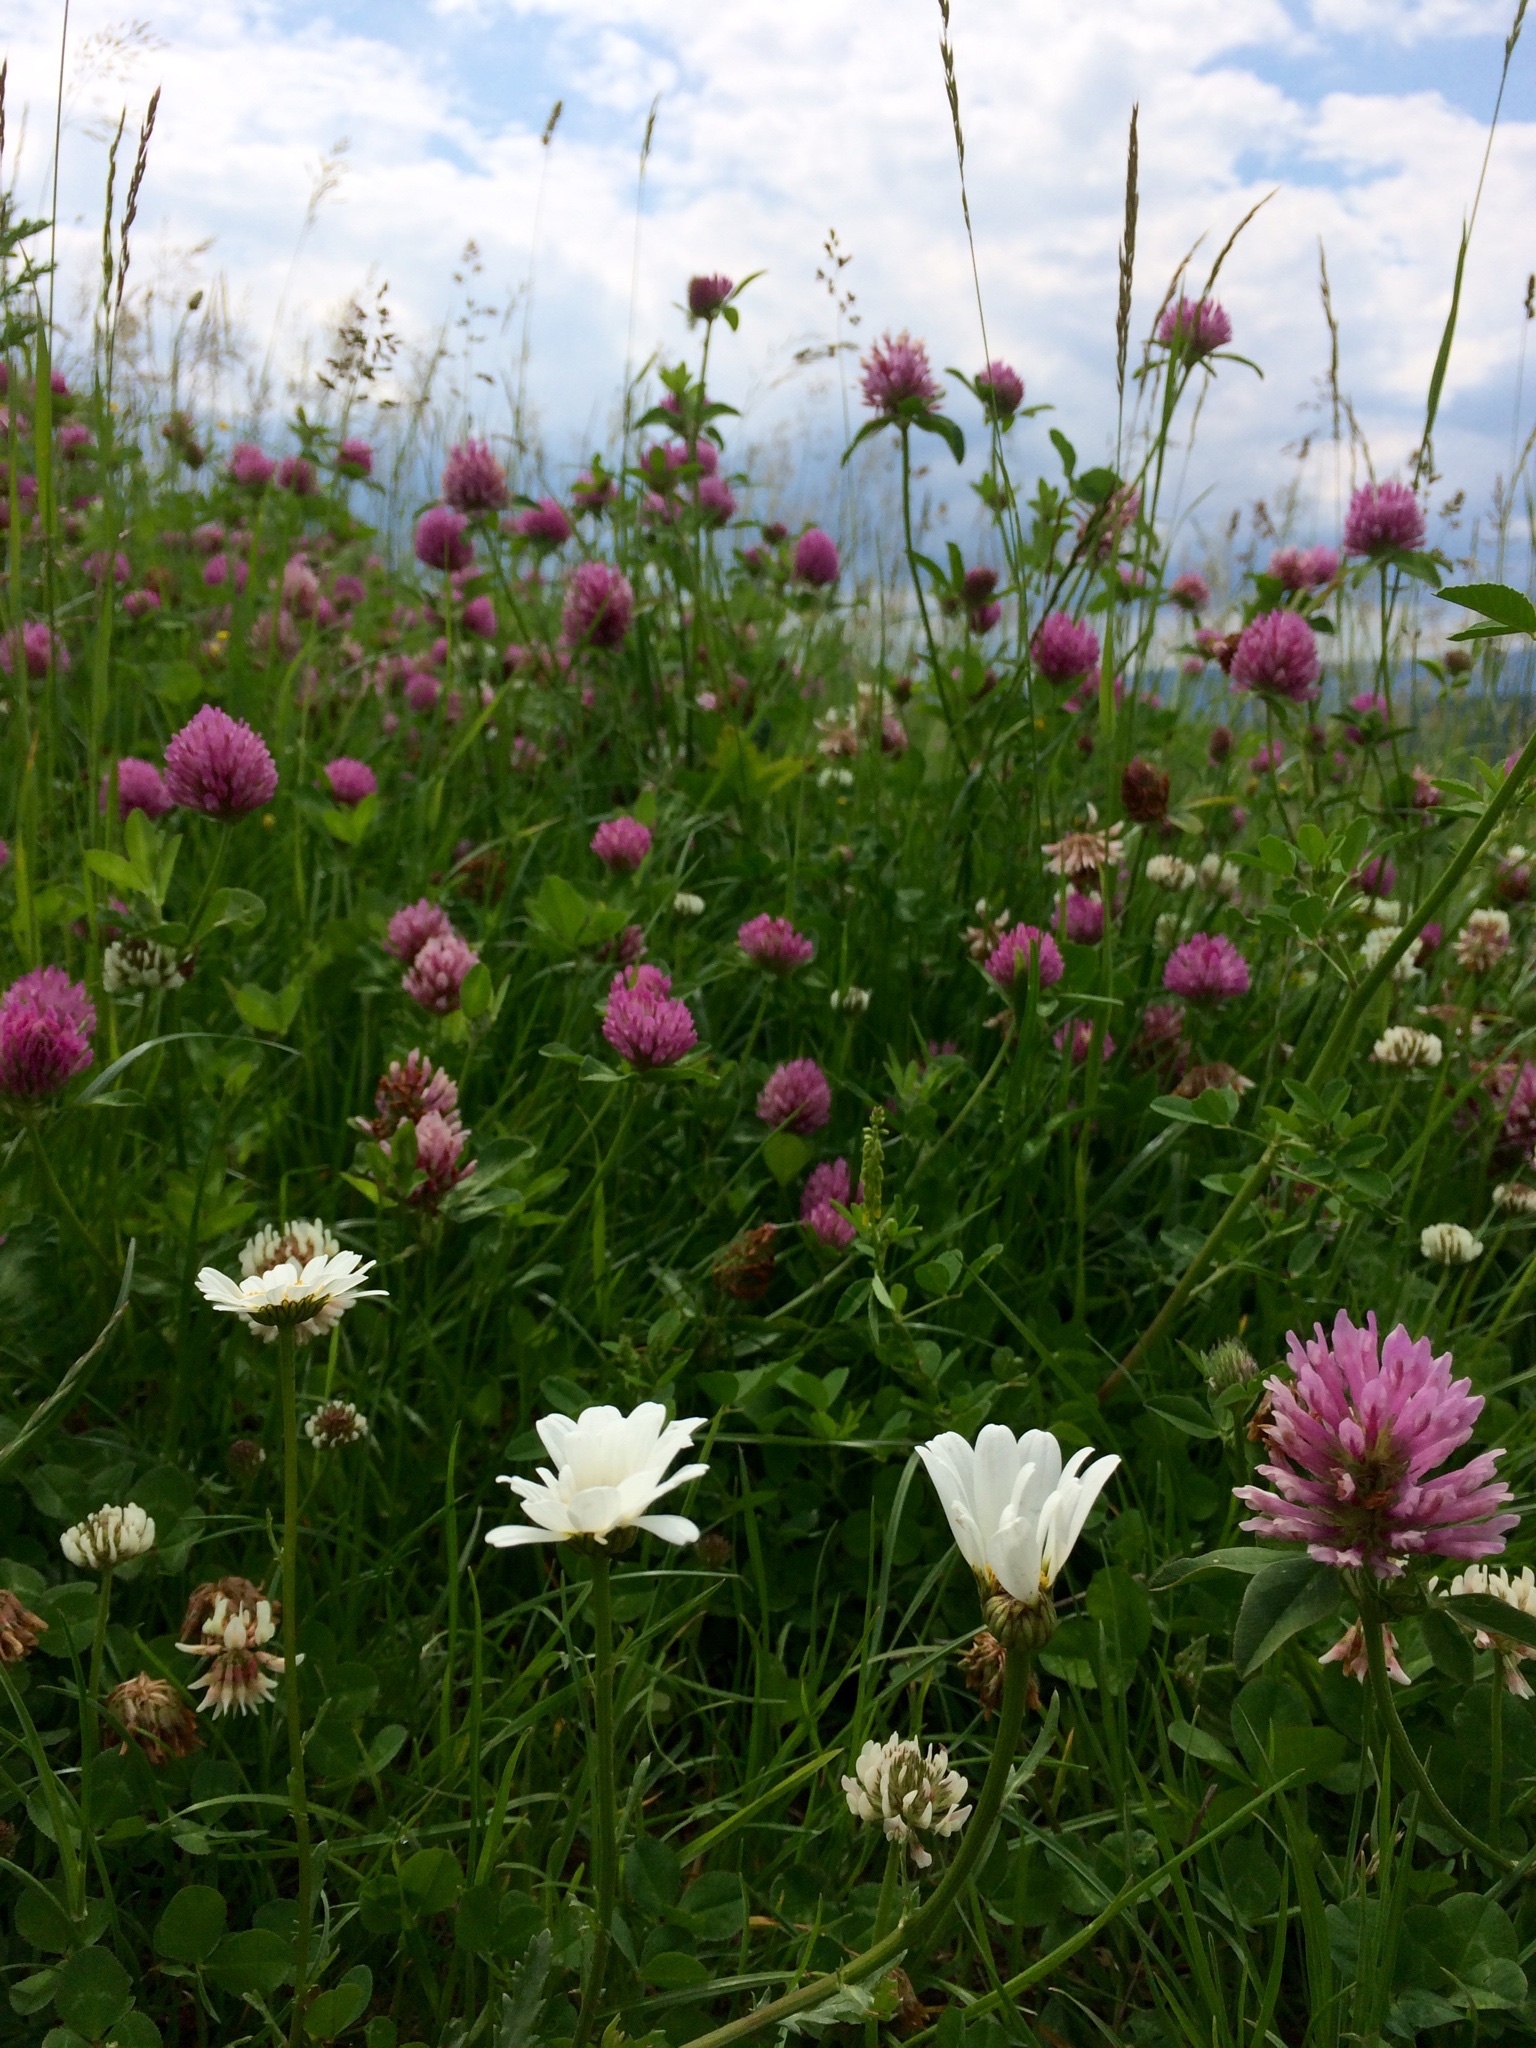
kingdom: Plantae
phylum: Tracheophyta
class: Magnoliopsida
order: Fabales
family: Fabaceae
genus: Trifolium
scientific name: Trifolium pratense
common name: Red clover
